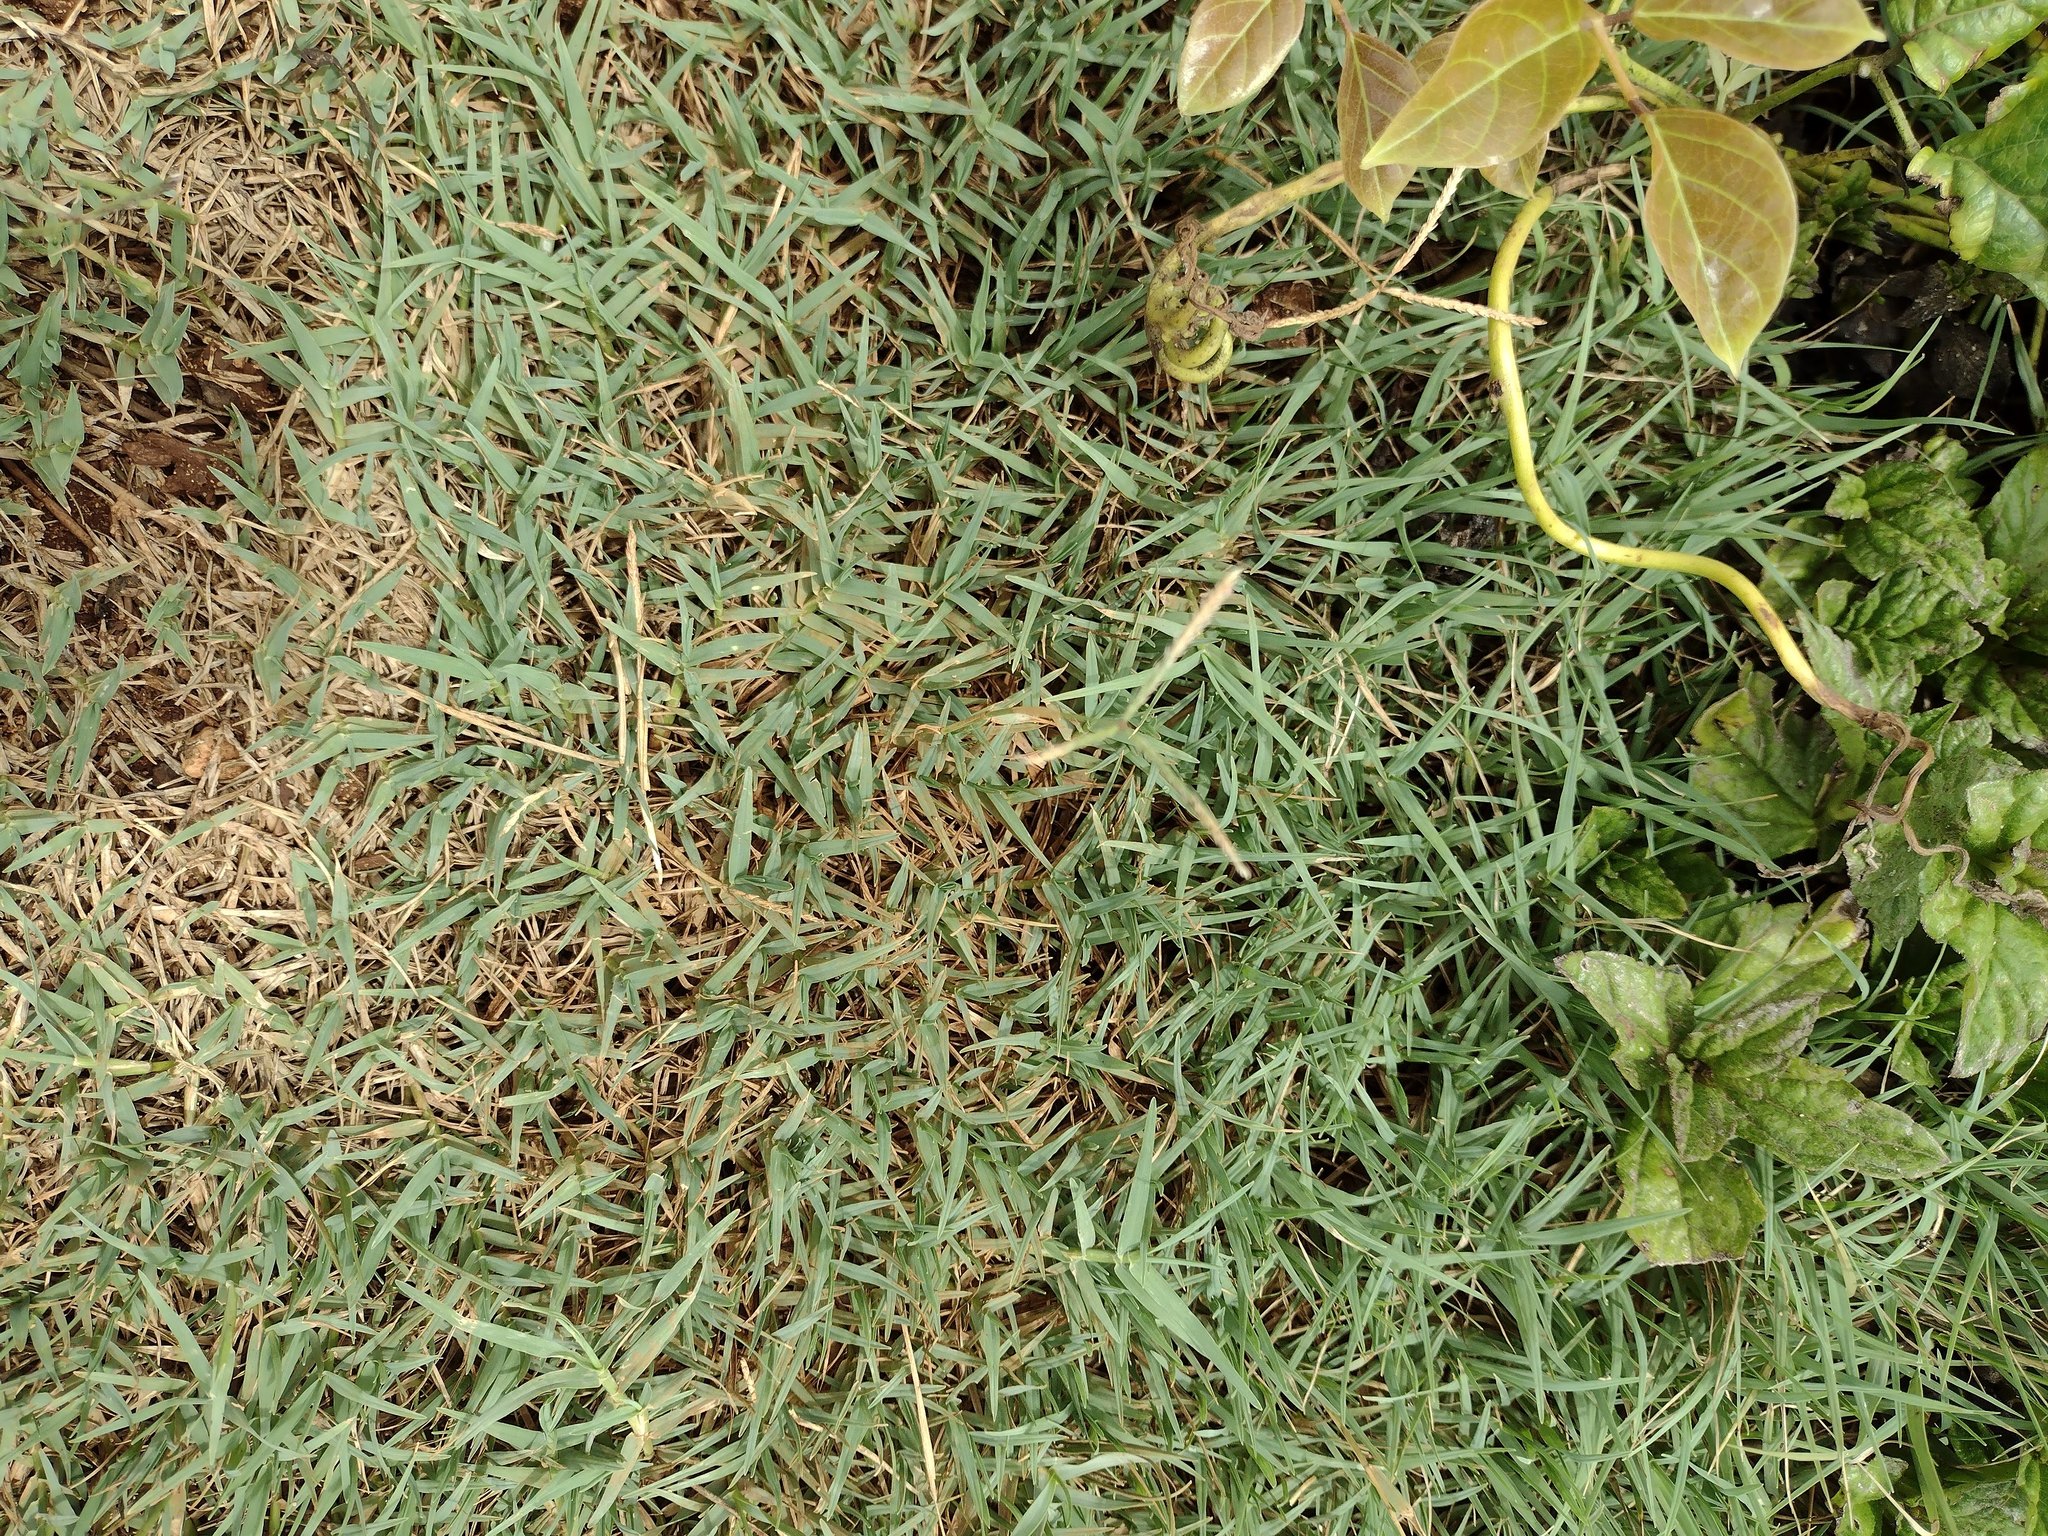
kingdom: Plantae
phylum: Tracheophyta
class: Liliopsida
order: Poales
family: Poaceae
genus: Cynodon
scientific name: Cynodon dactylon
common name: Bermuda grass
